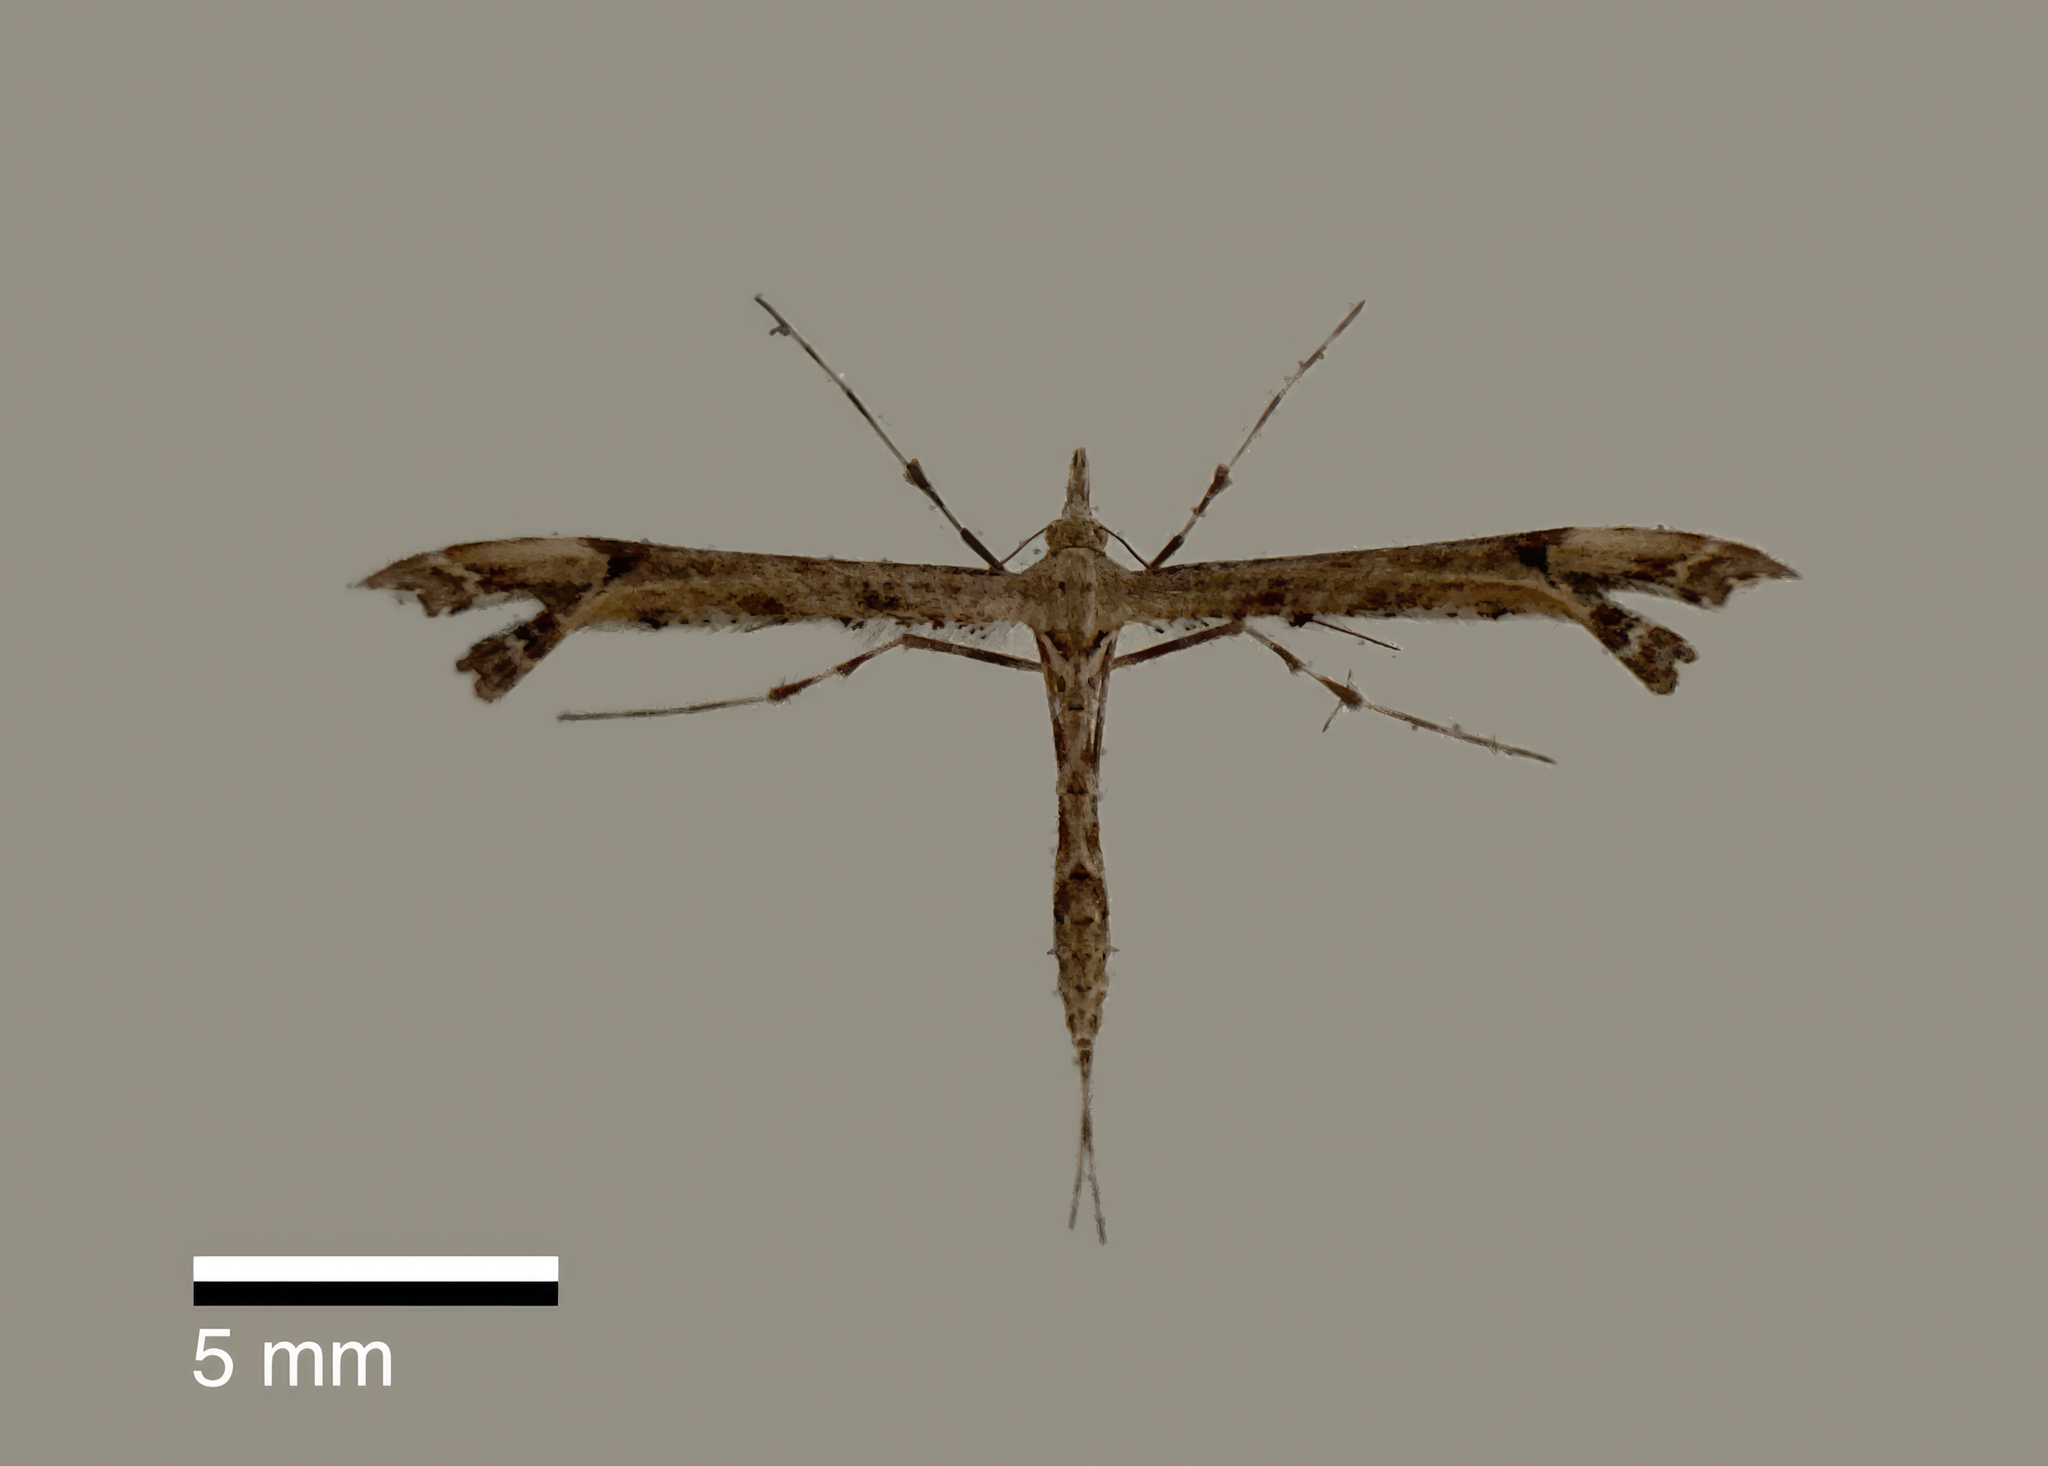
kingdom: Animalia
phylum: Arthropoda
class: Insecta
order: Lepidoptera
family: Pterophoridae
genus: Amblyptilia
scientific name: Amblyptilia repletalis
